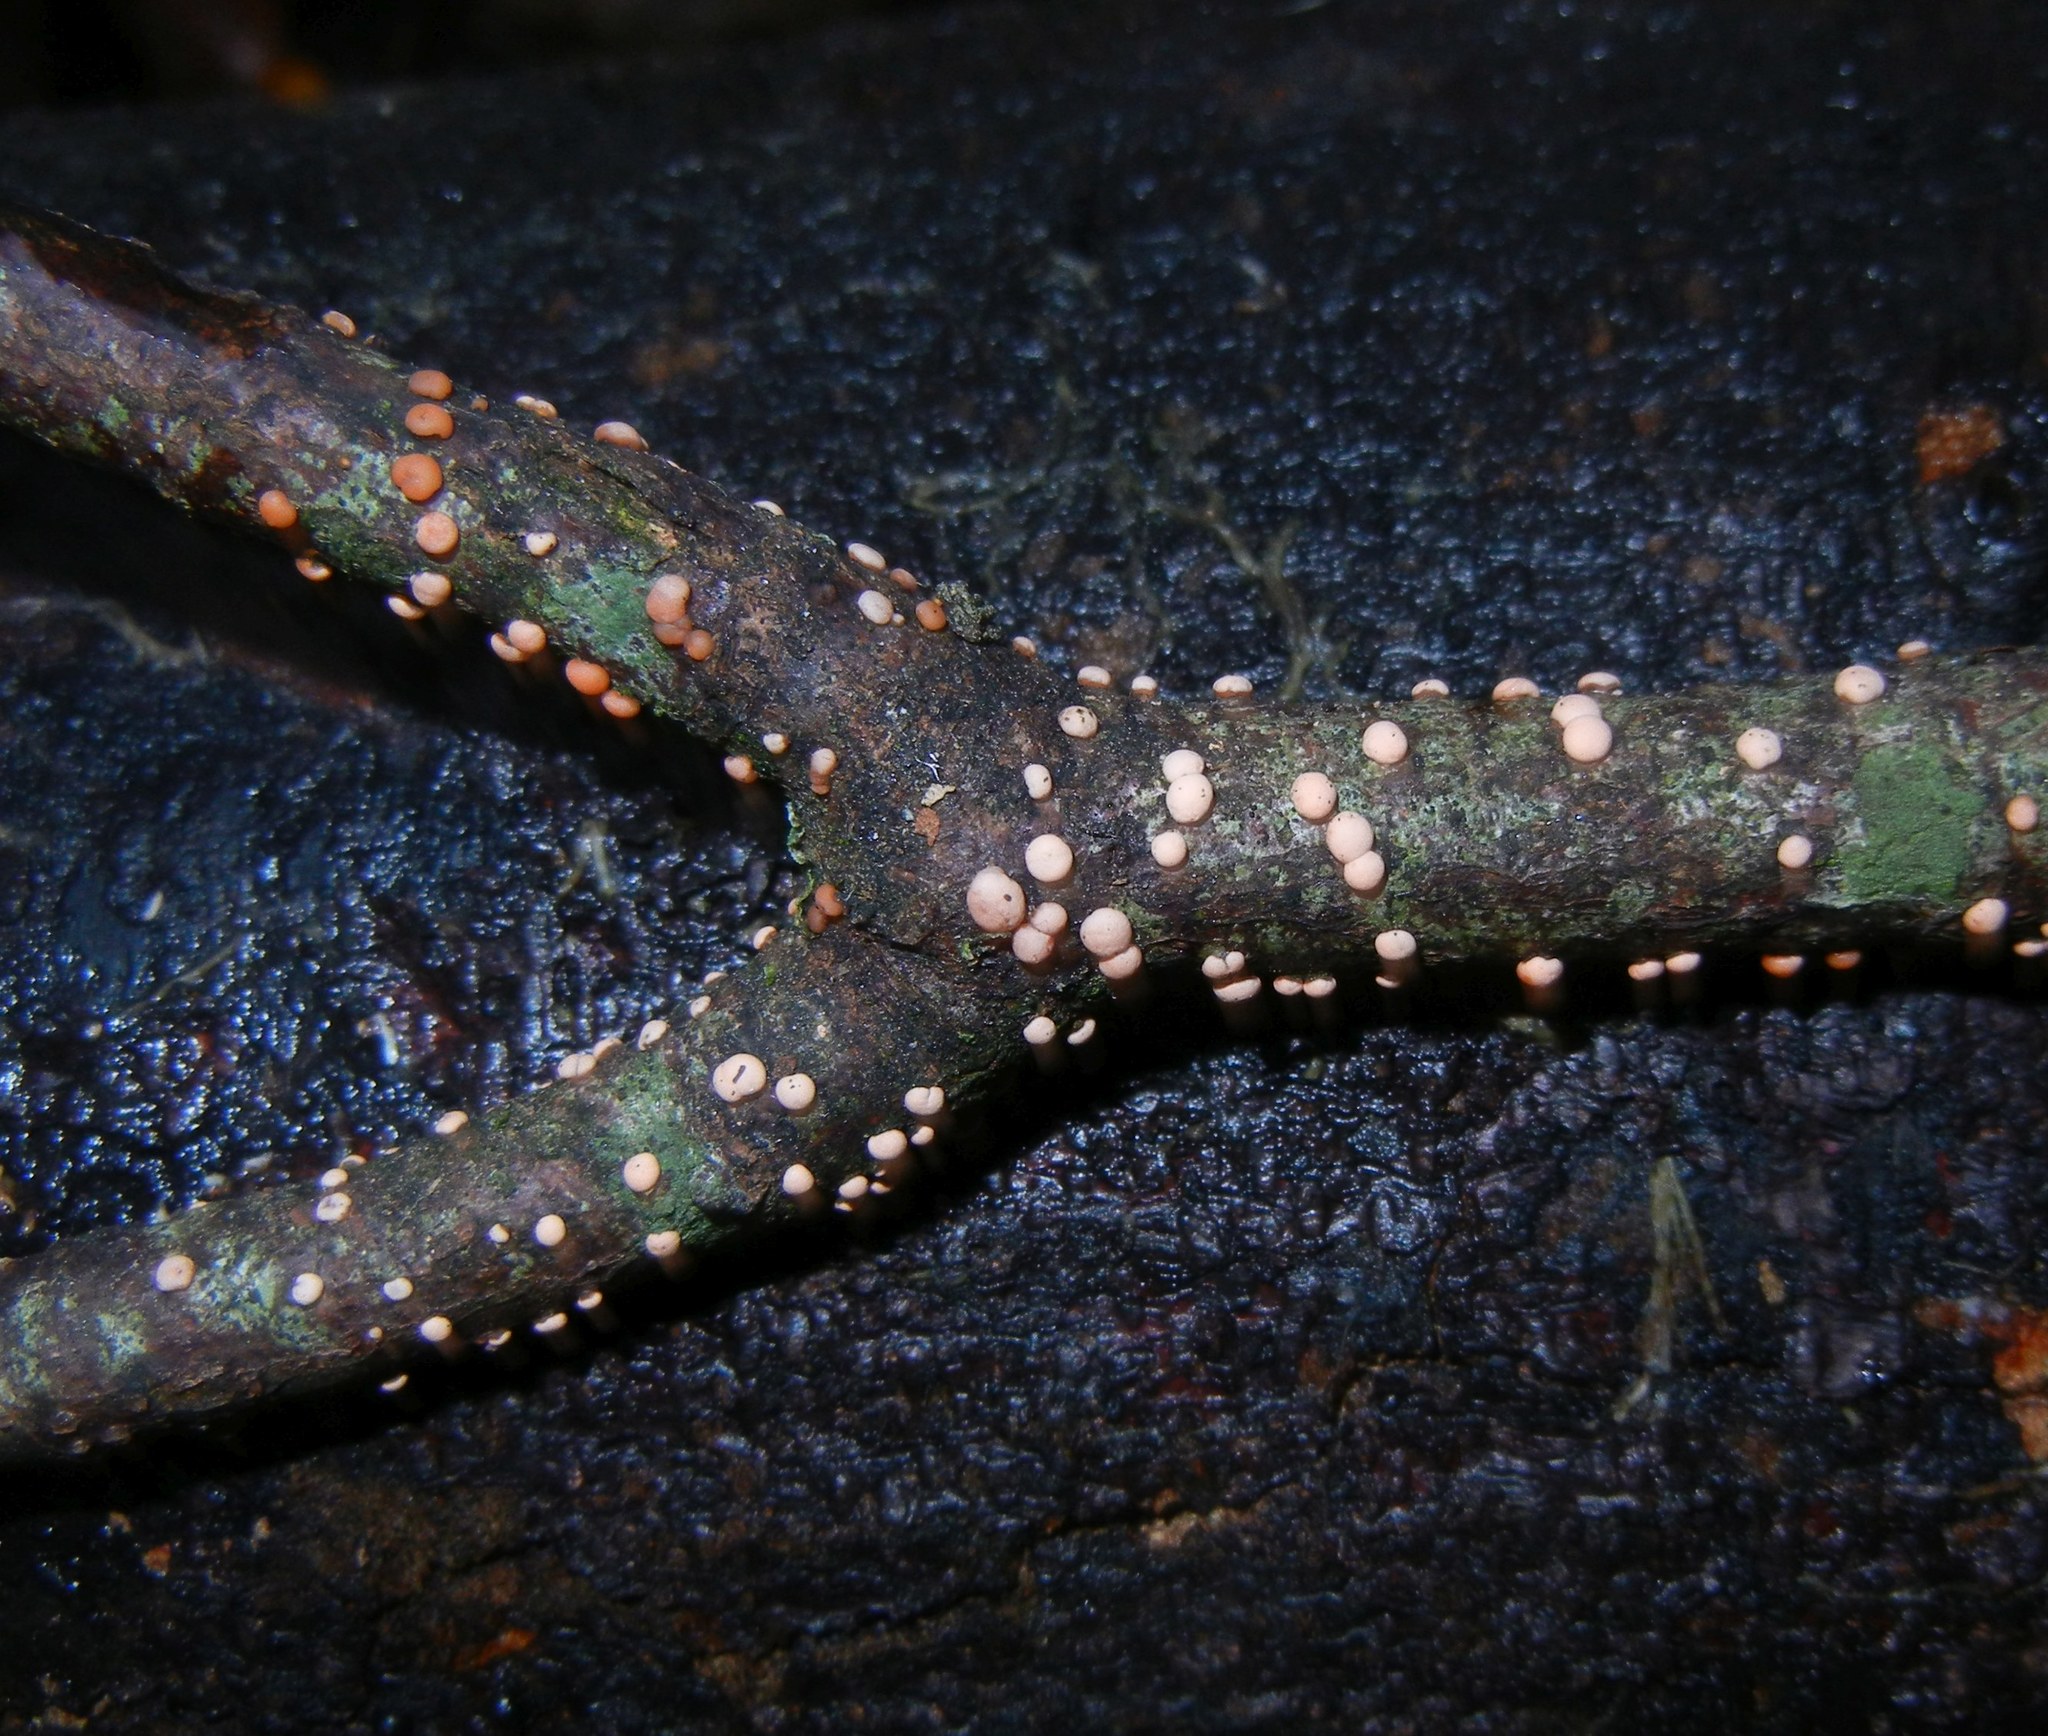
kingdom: Fungi
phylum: Ascomycota
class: Sordariomycetes
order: Hypocreales
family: Nectriaceae
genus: Nectria
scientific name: Nectria cinnabarina
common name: Coral spot
